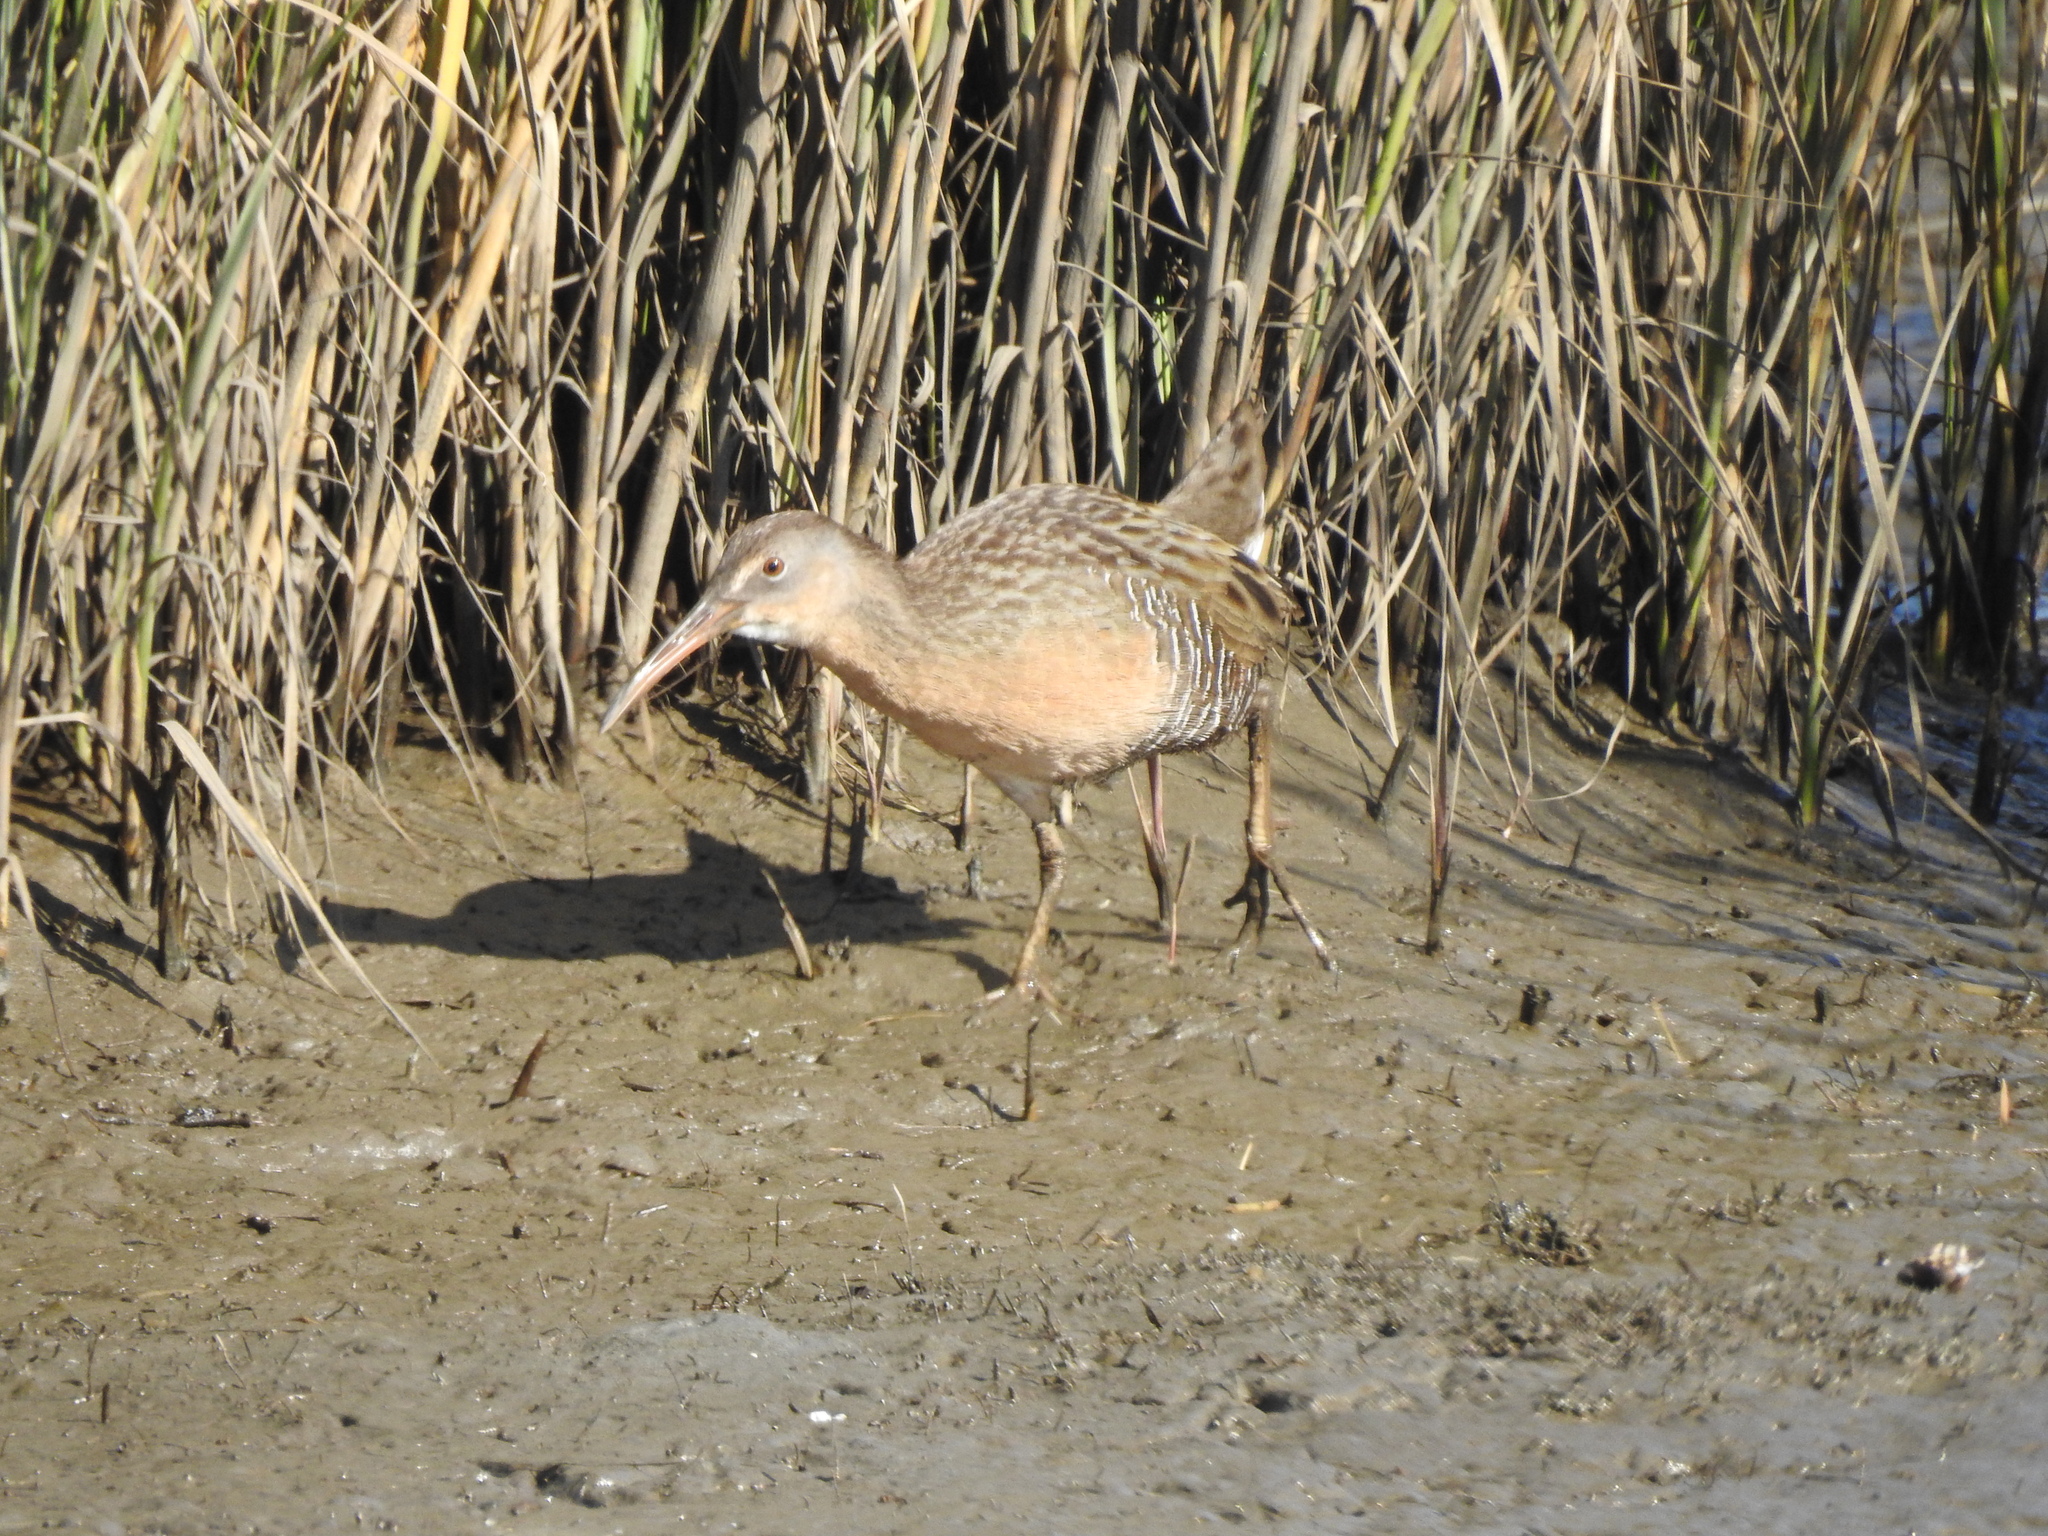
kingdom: Animalia
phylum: Chordata
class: Aves
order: Gruiformes
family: Rallidae
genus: Rallus
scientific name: Rallus crepitans
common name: Clapper rail
